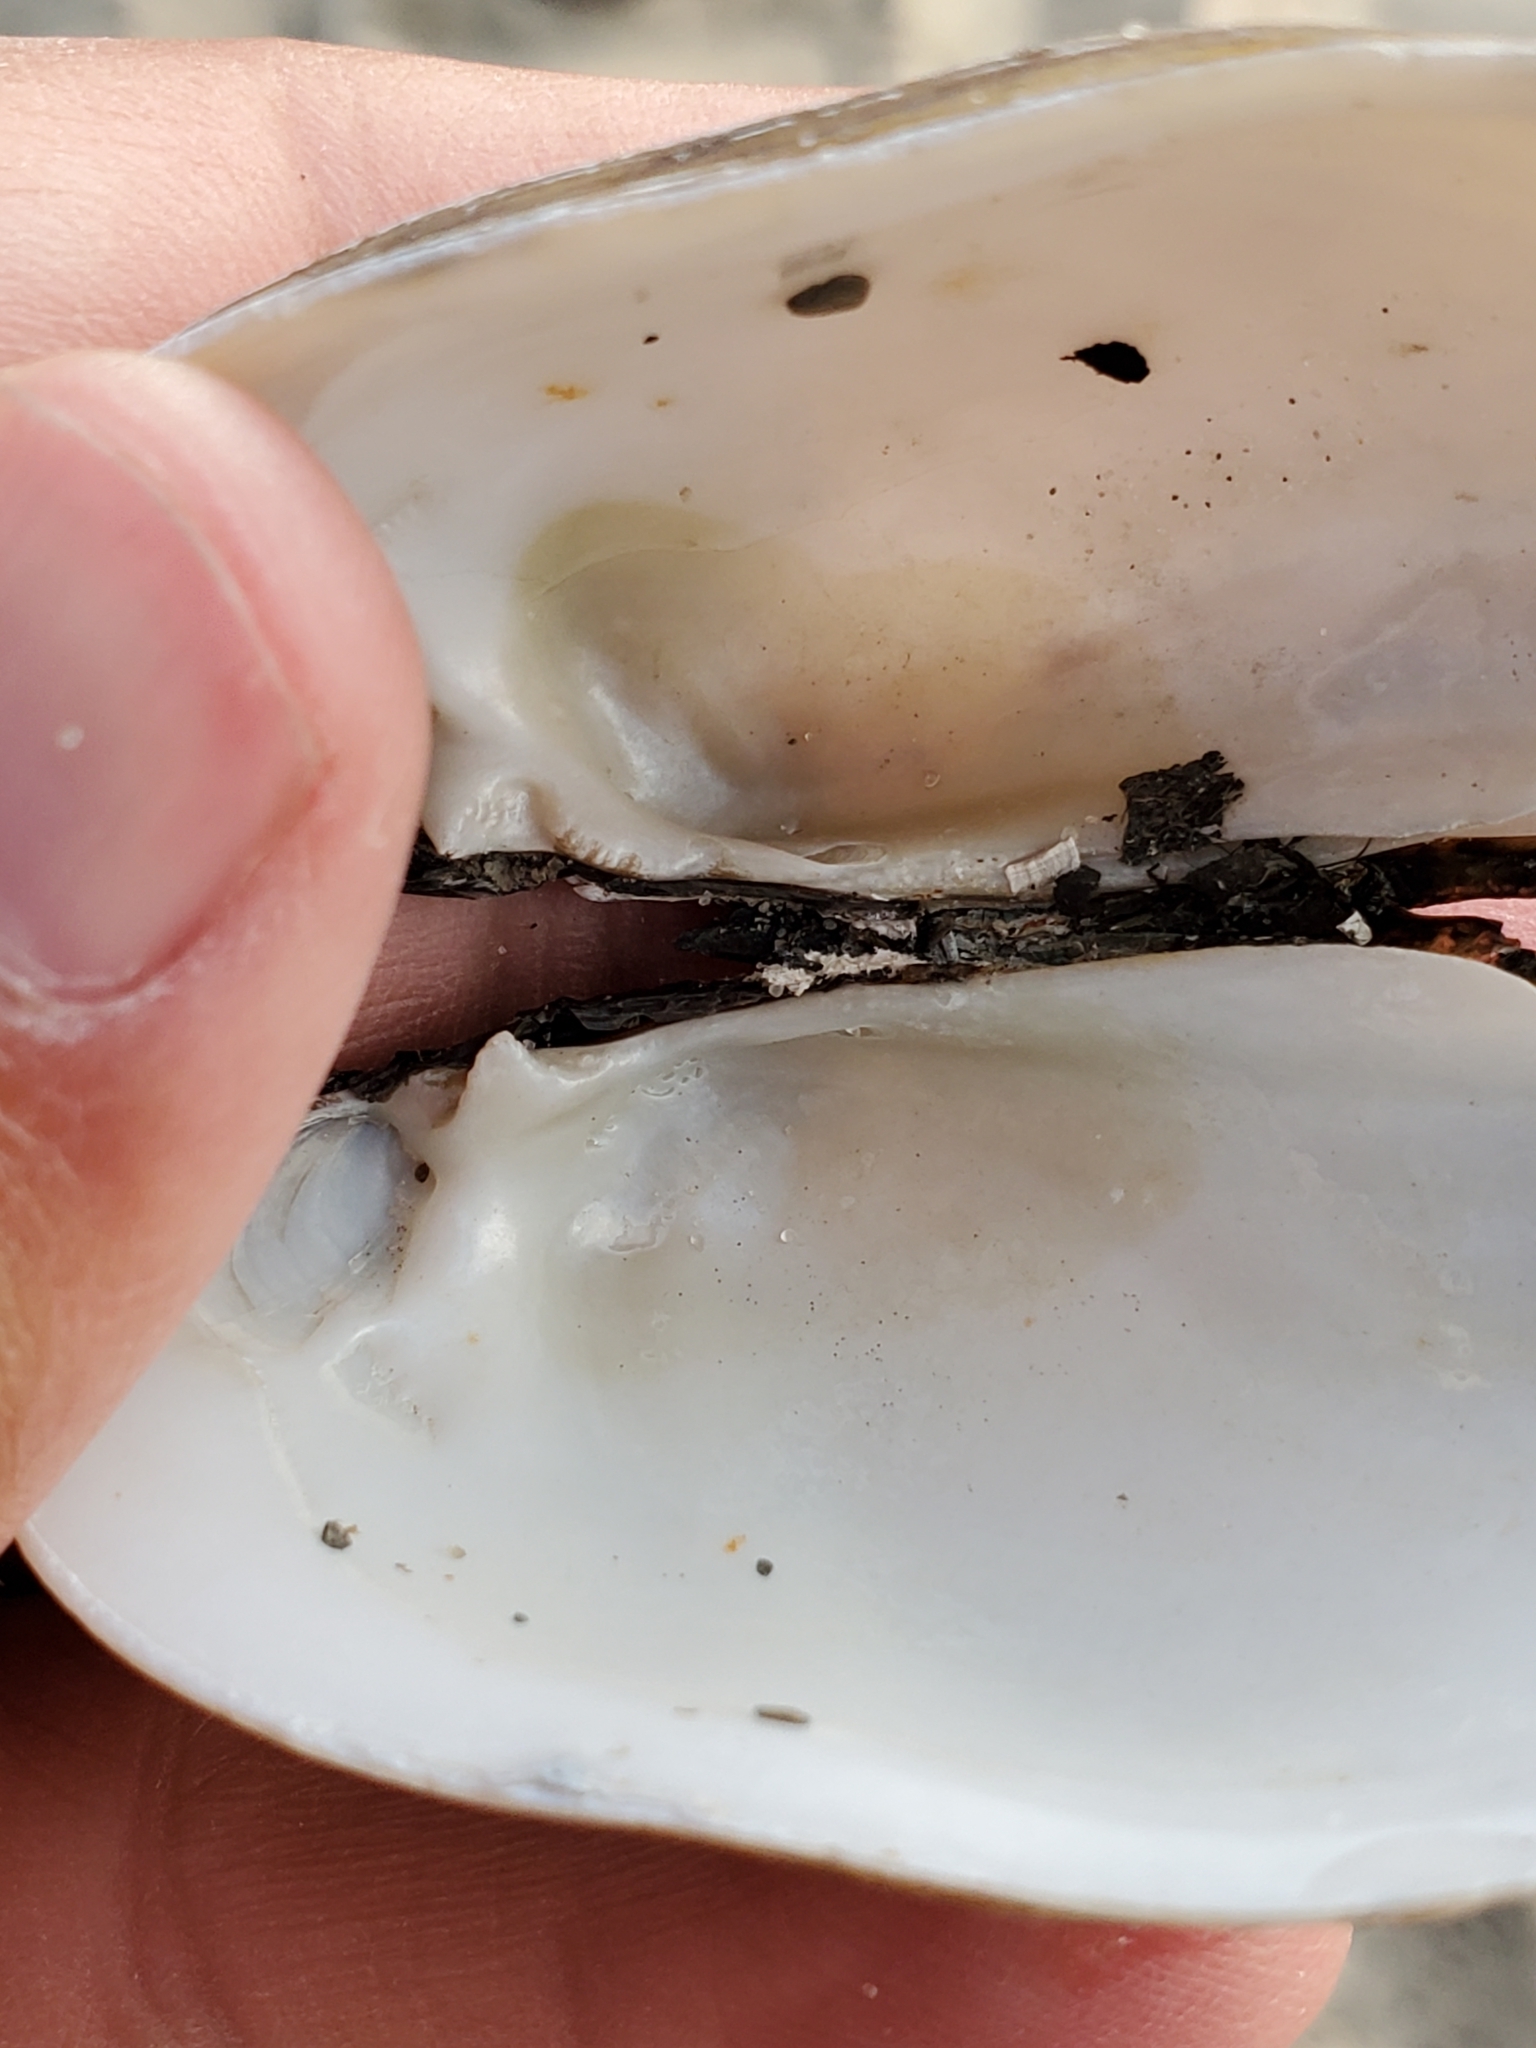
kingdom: Animalia
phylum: Mollusca
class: Bivalvia
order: Unionida
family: Unionidae
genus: Lampsilis
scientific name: Lampsilis siliquoidea
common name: Fatmucket
